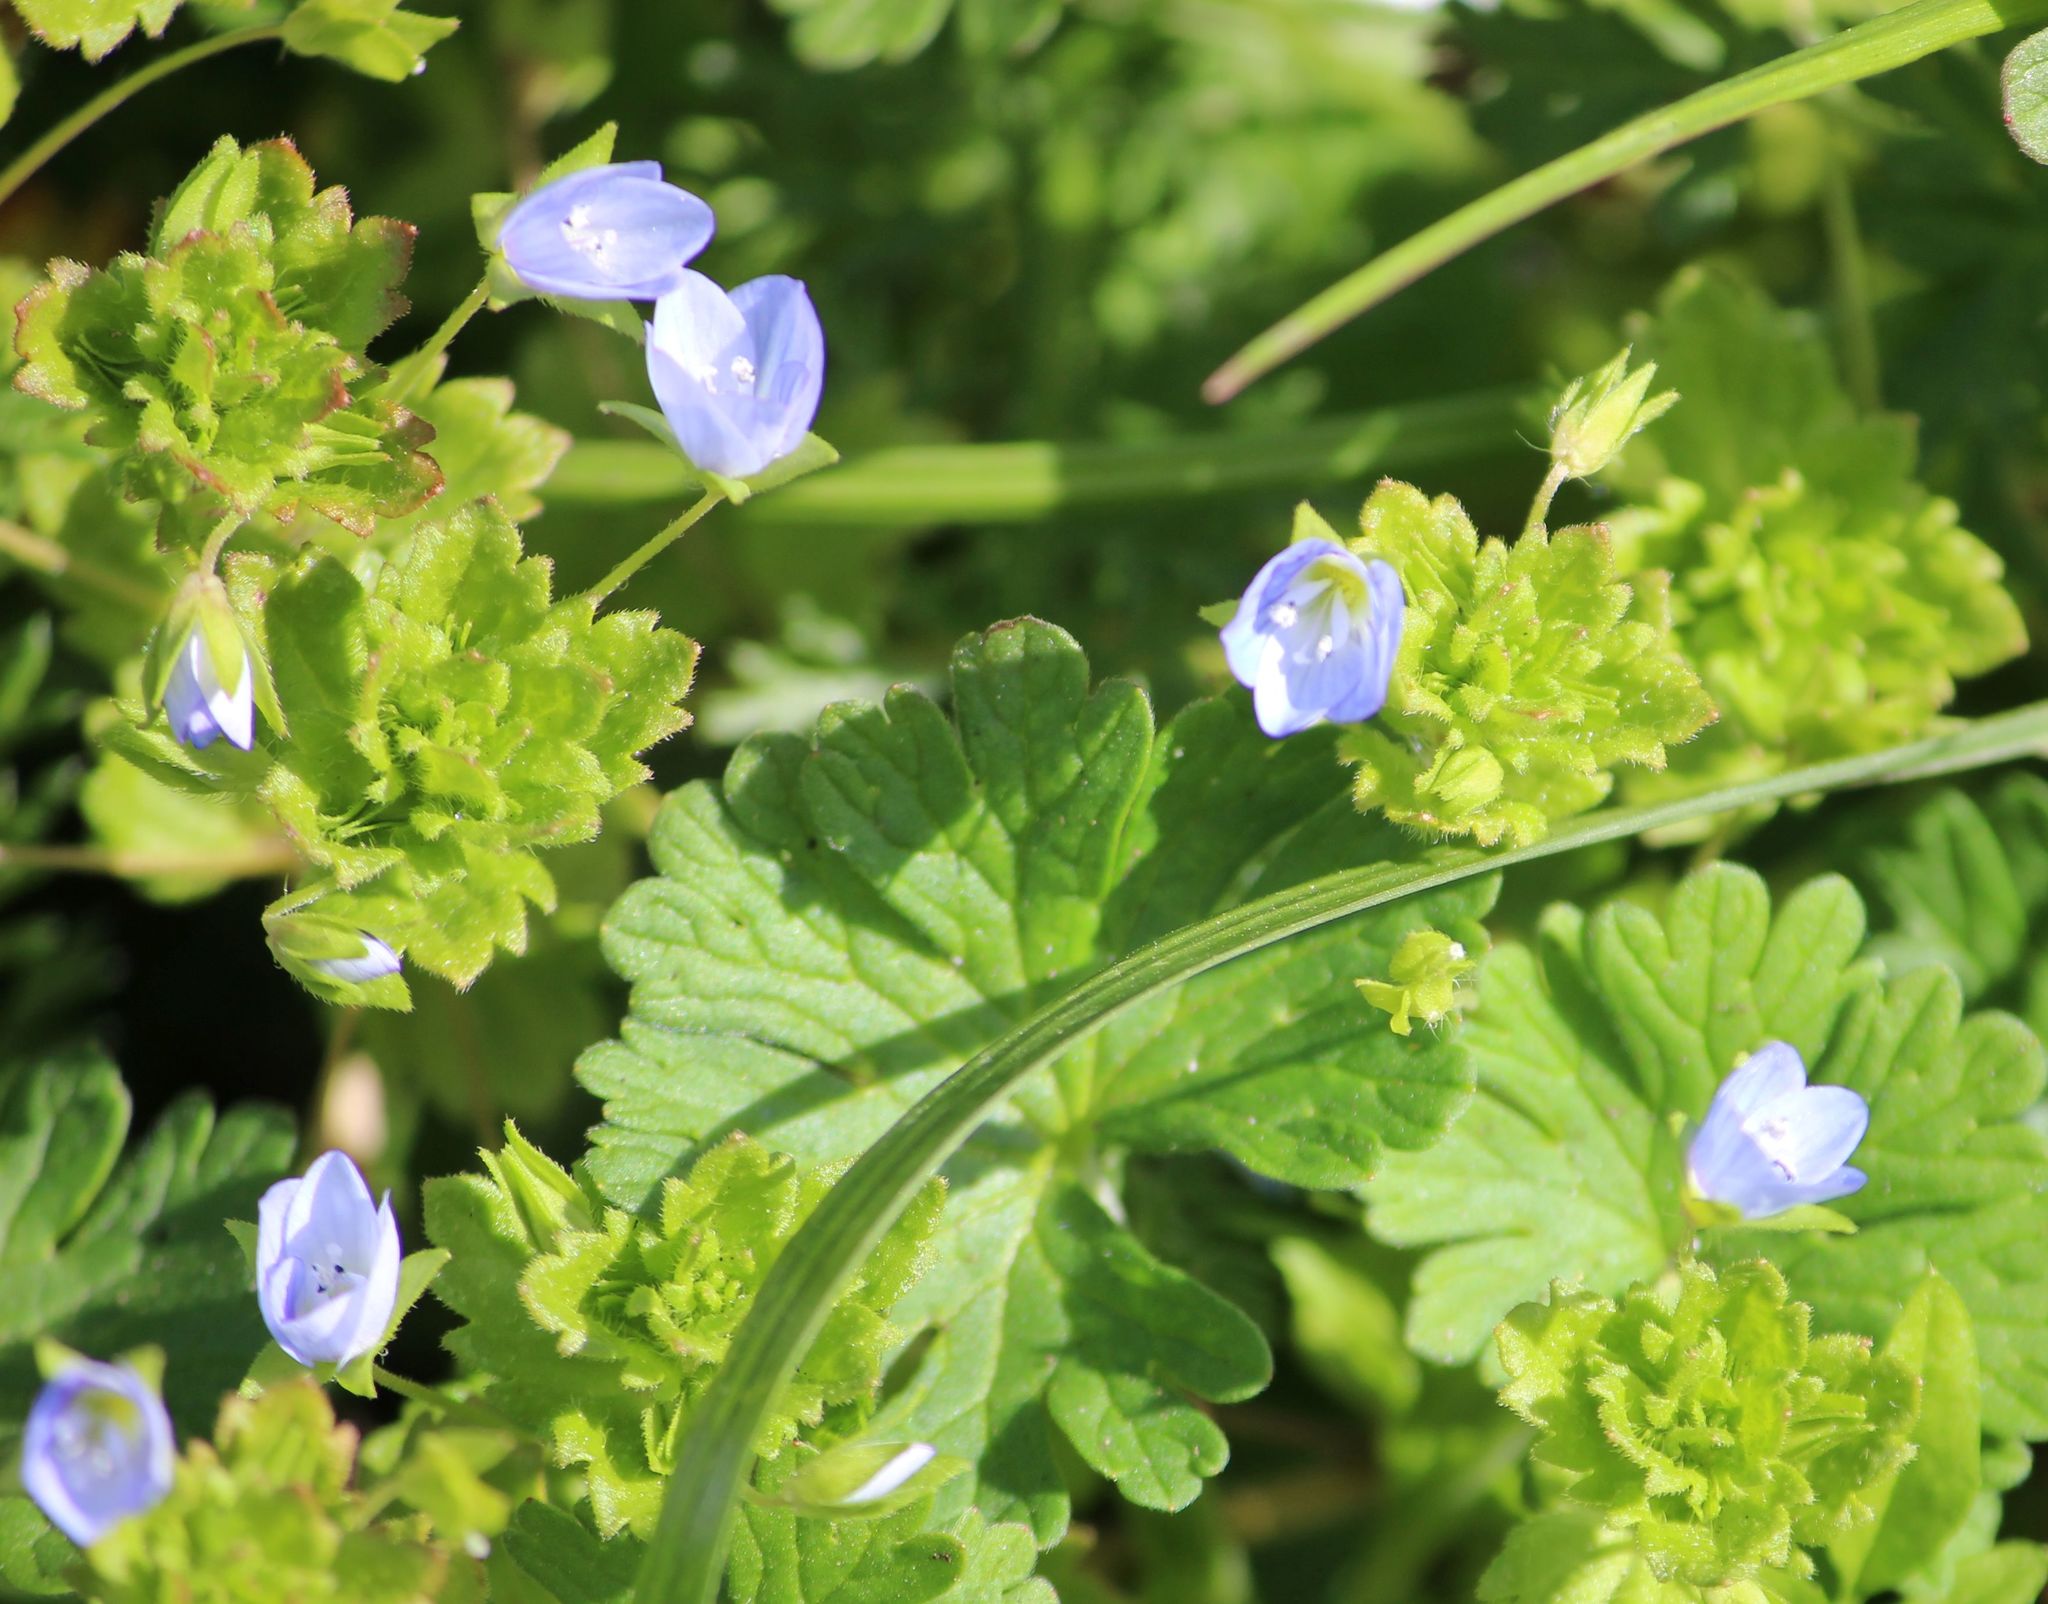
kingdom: Plantae
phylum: Tracheophyta
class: Magnoliopsida
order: Lamiales
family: Plantaginaceae
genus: Veronica
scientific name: Veronica persica
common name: Common field-speedwell
